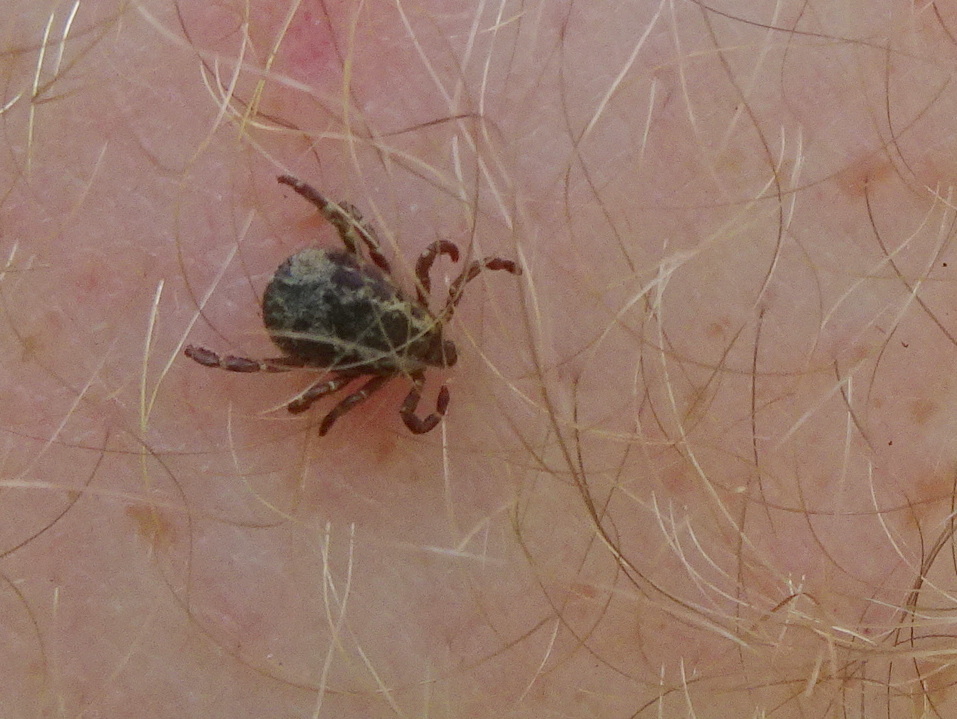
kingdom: Animalia
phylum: Arthropoda
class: Arachnida
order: Ixodida
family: Ixodidae
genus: Dermacentor
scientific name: Dermacentor variabilis
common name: American dog tick
